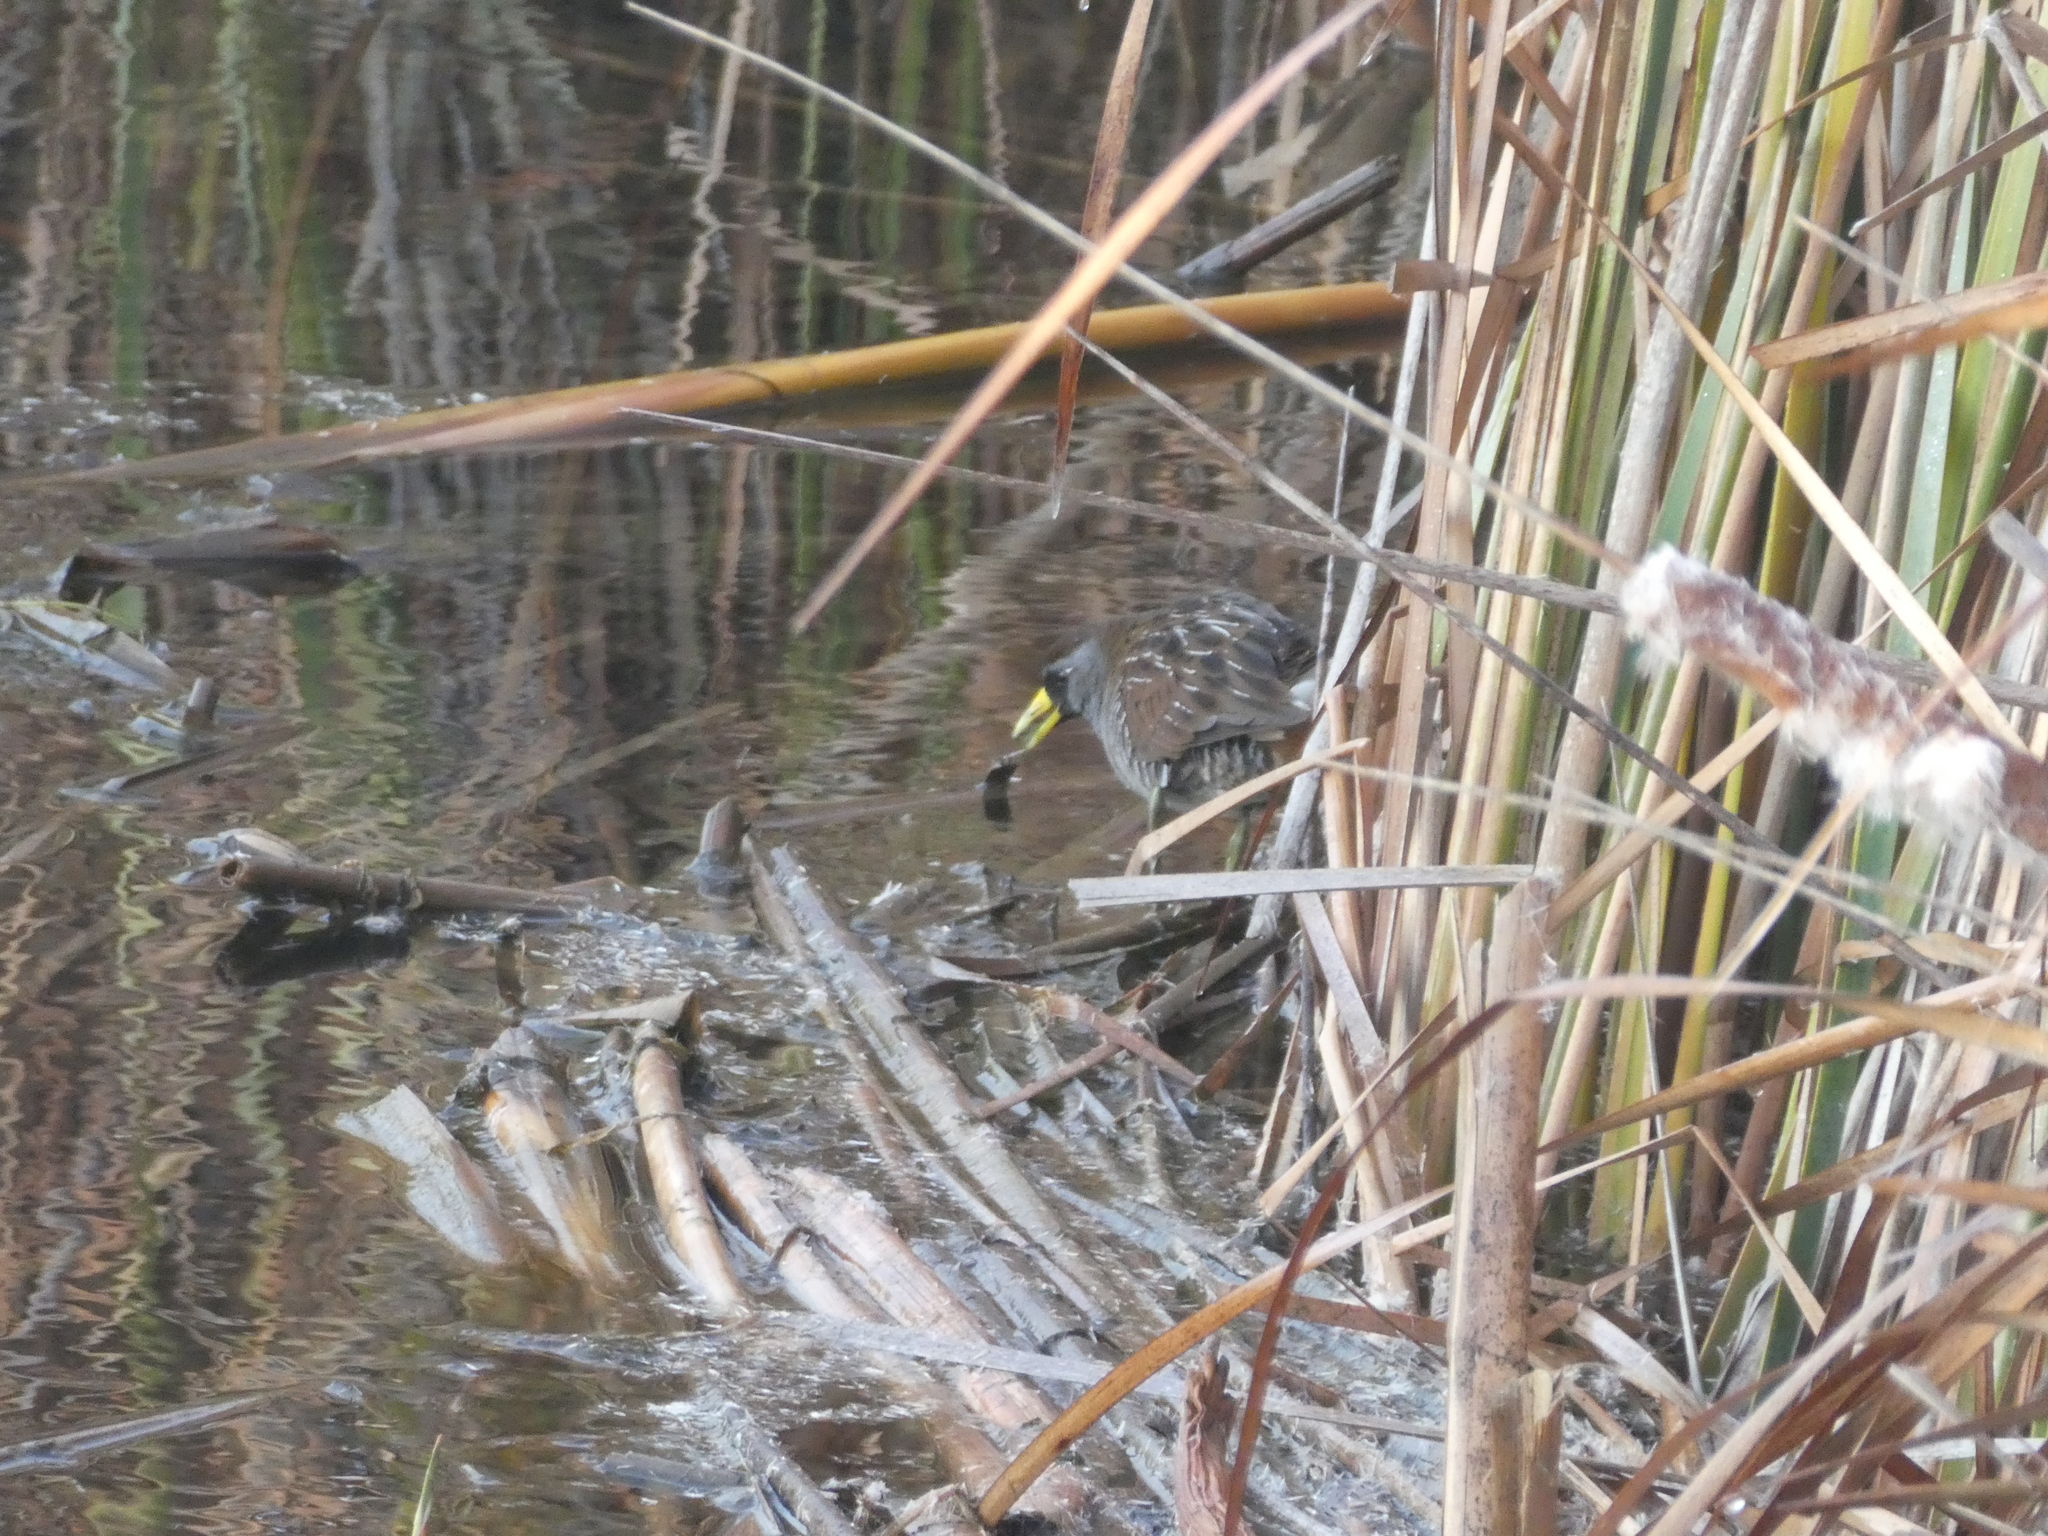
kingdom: Animalia
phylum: Chordata
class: Aves
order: Gruiformes
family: Rallidae
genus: Porzana
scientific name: Porzana carolina
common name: Sora
